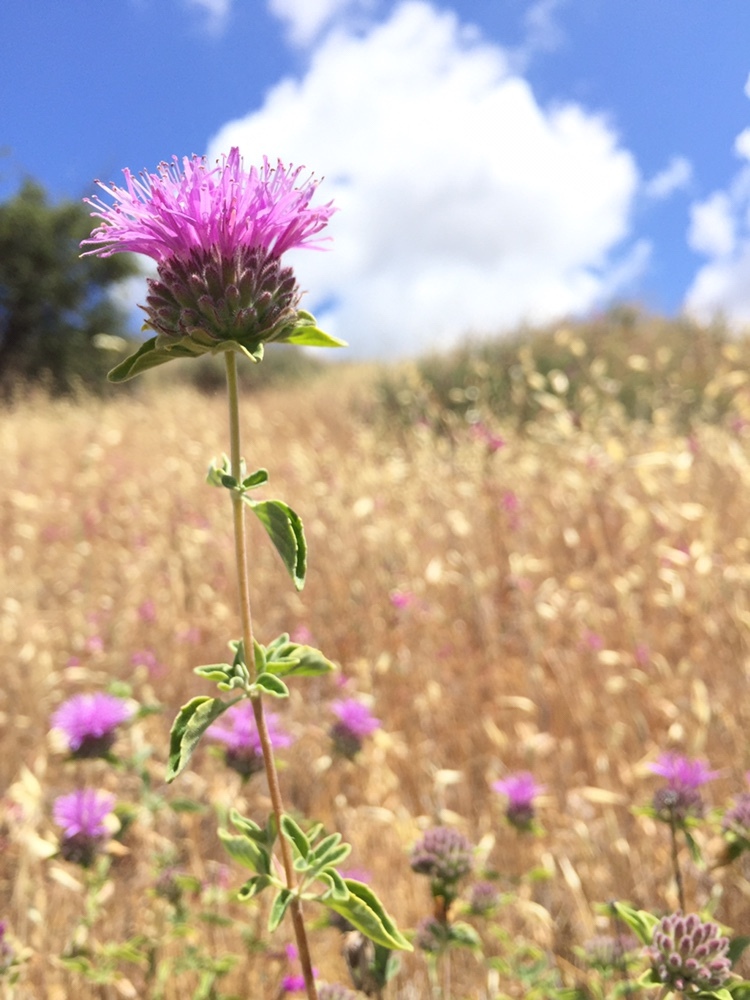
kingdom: Plantae
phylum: Tracheophyta
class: Magnoliopsida
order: Lamiales
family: Lamiaceae
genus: Monardella
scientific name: Monardella odoratissima
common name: Pacific monardella
